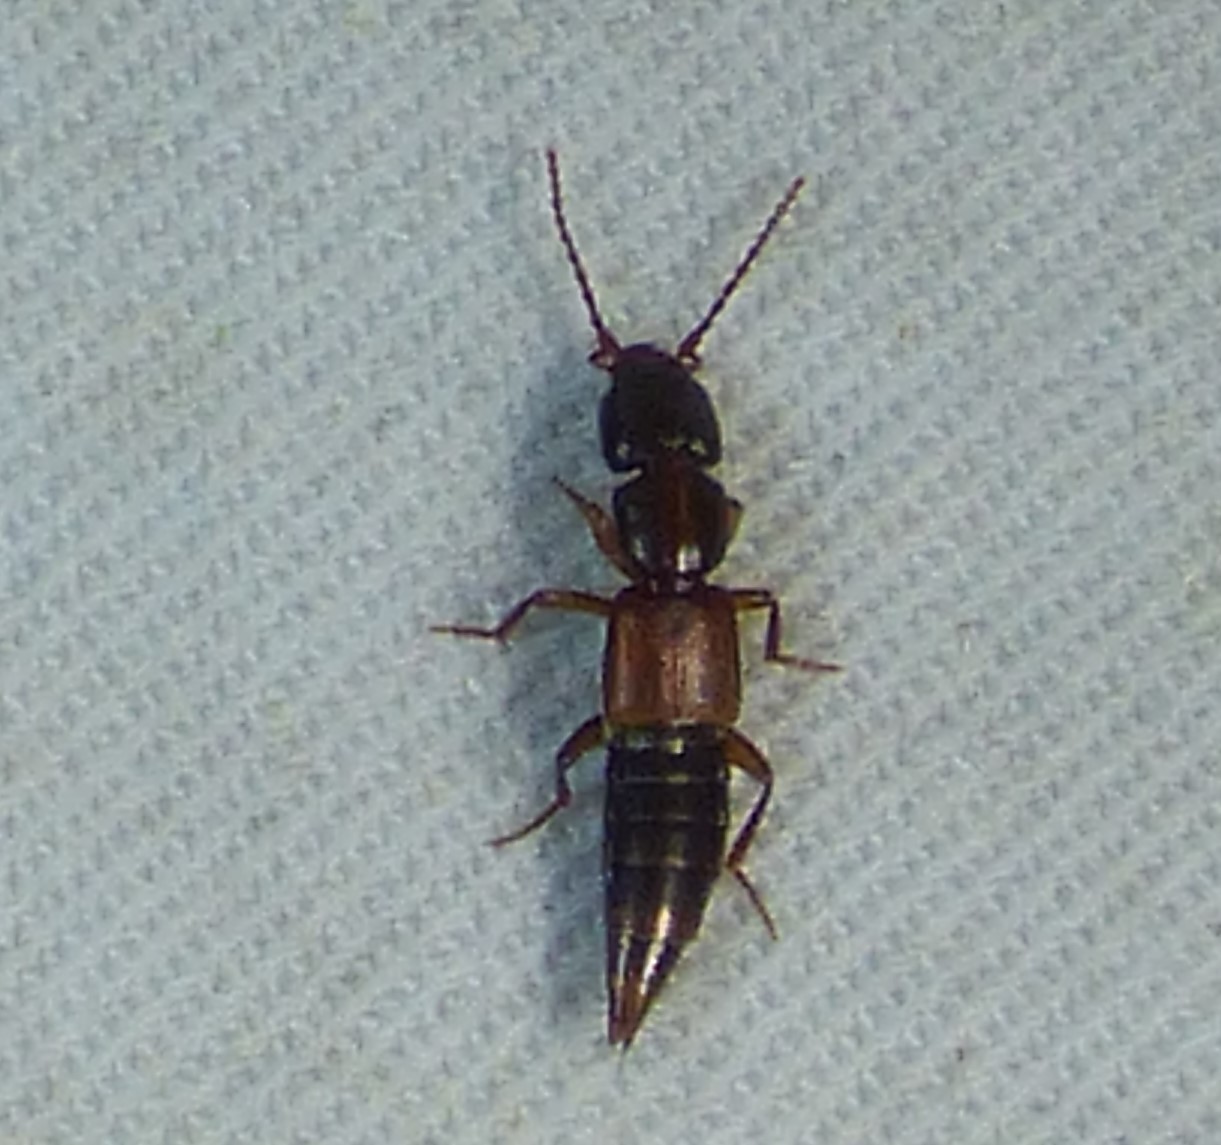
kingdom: Animalia
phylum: Arthropoda
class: Insecta
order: Coleoptera
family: Staphylinidae
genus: Achenomorphus
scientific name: Achenomorphus corticinus
